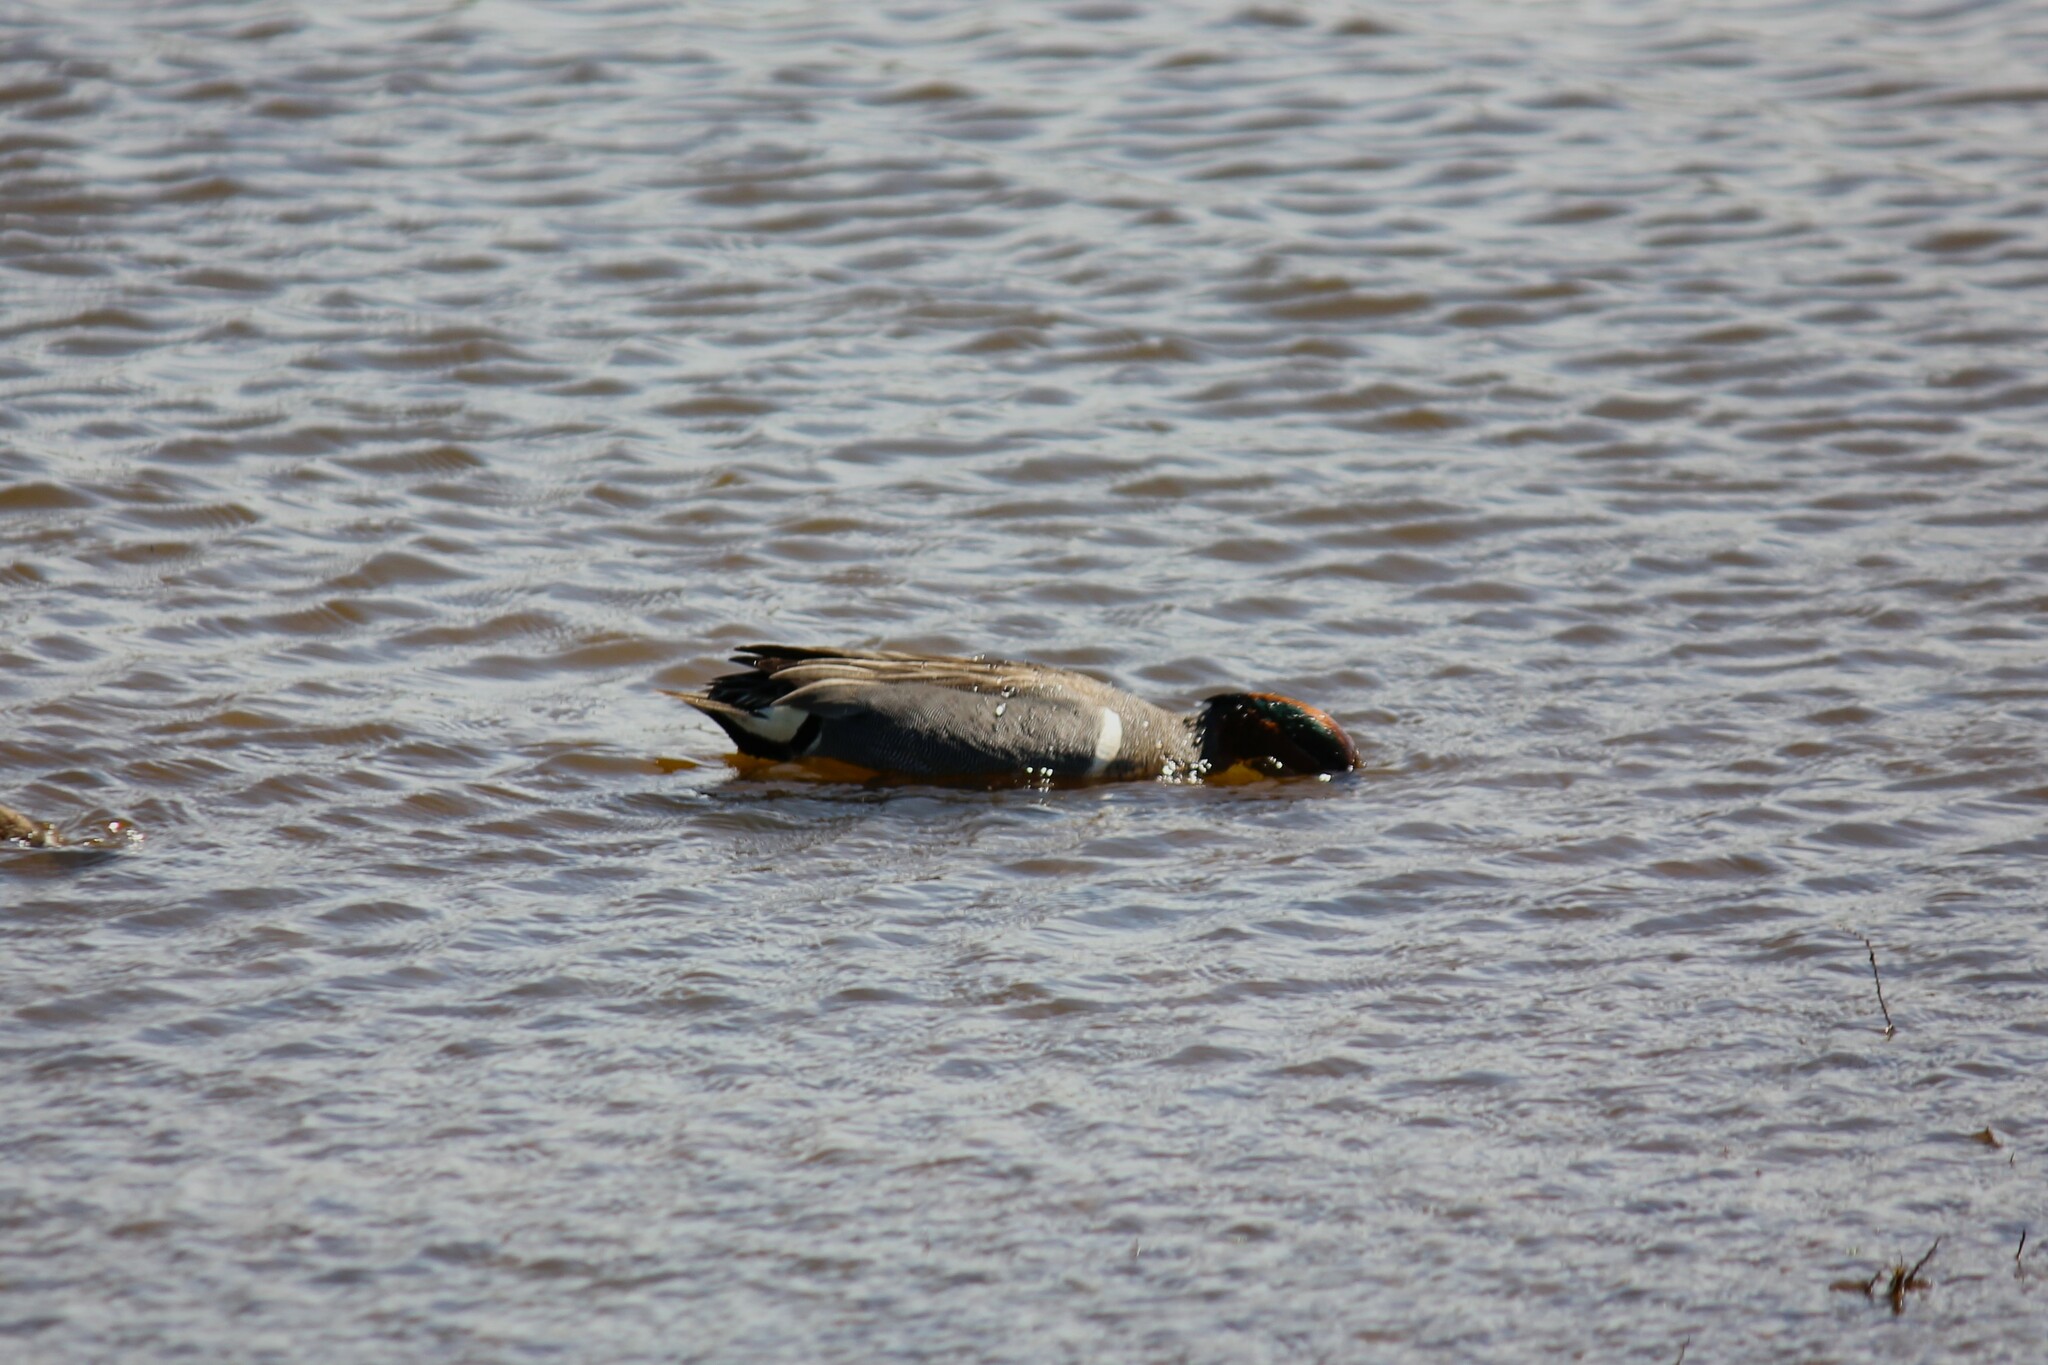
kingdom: Animalia
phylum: Chordata
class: Aves
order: Anseriformes
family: Anatidae
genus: Anas
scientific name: Anas crecca
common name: Eurasian teal
